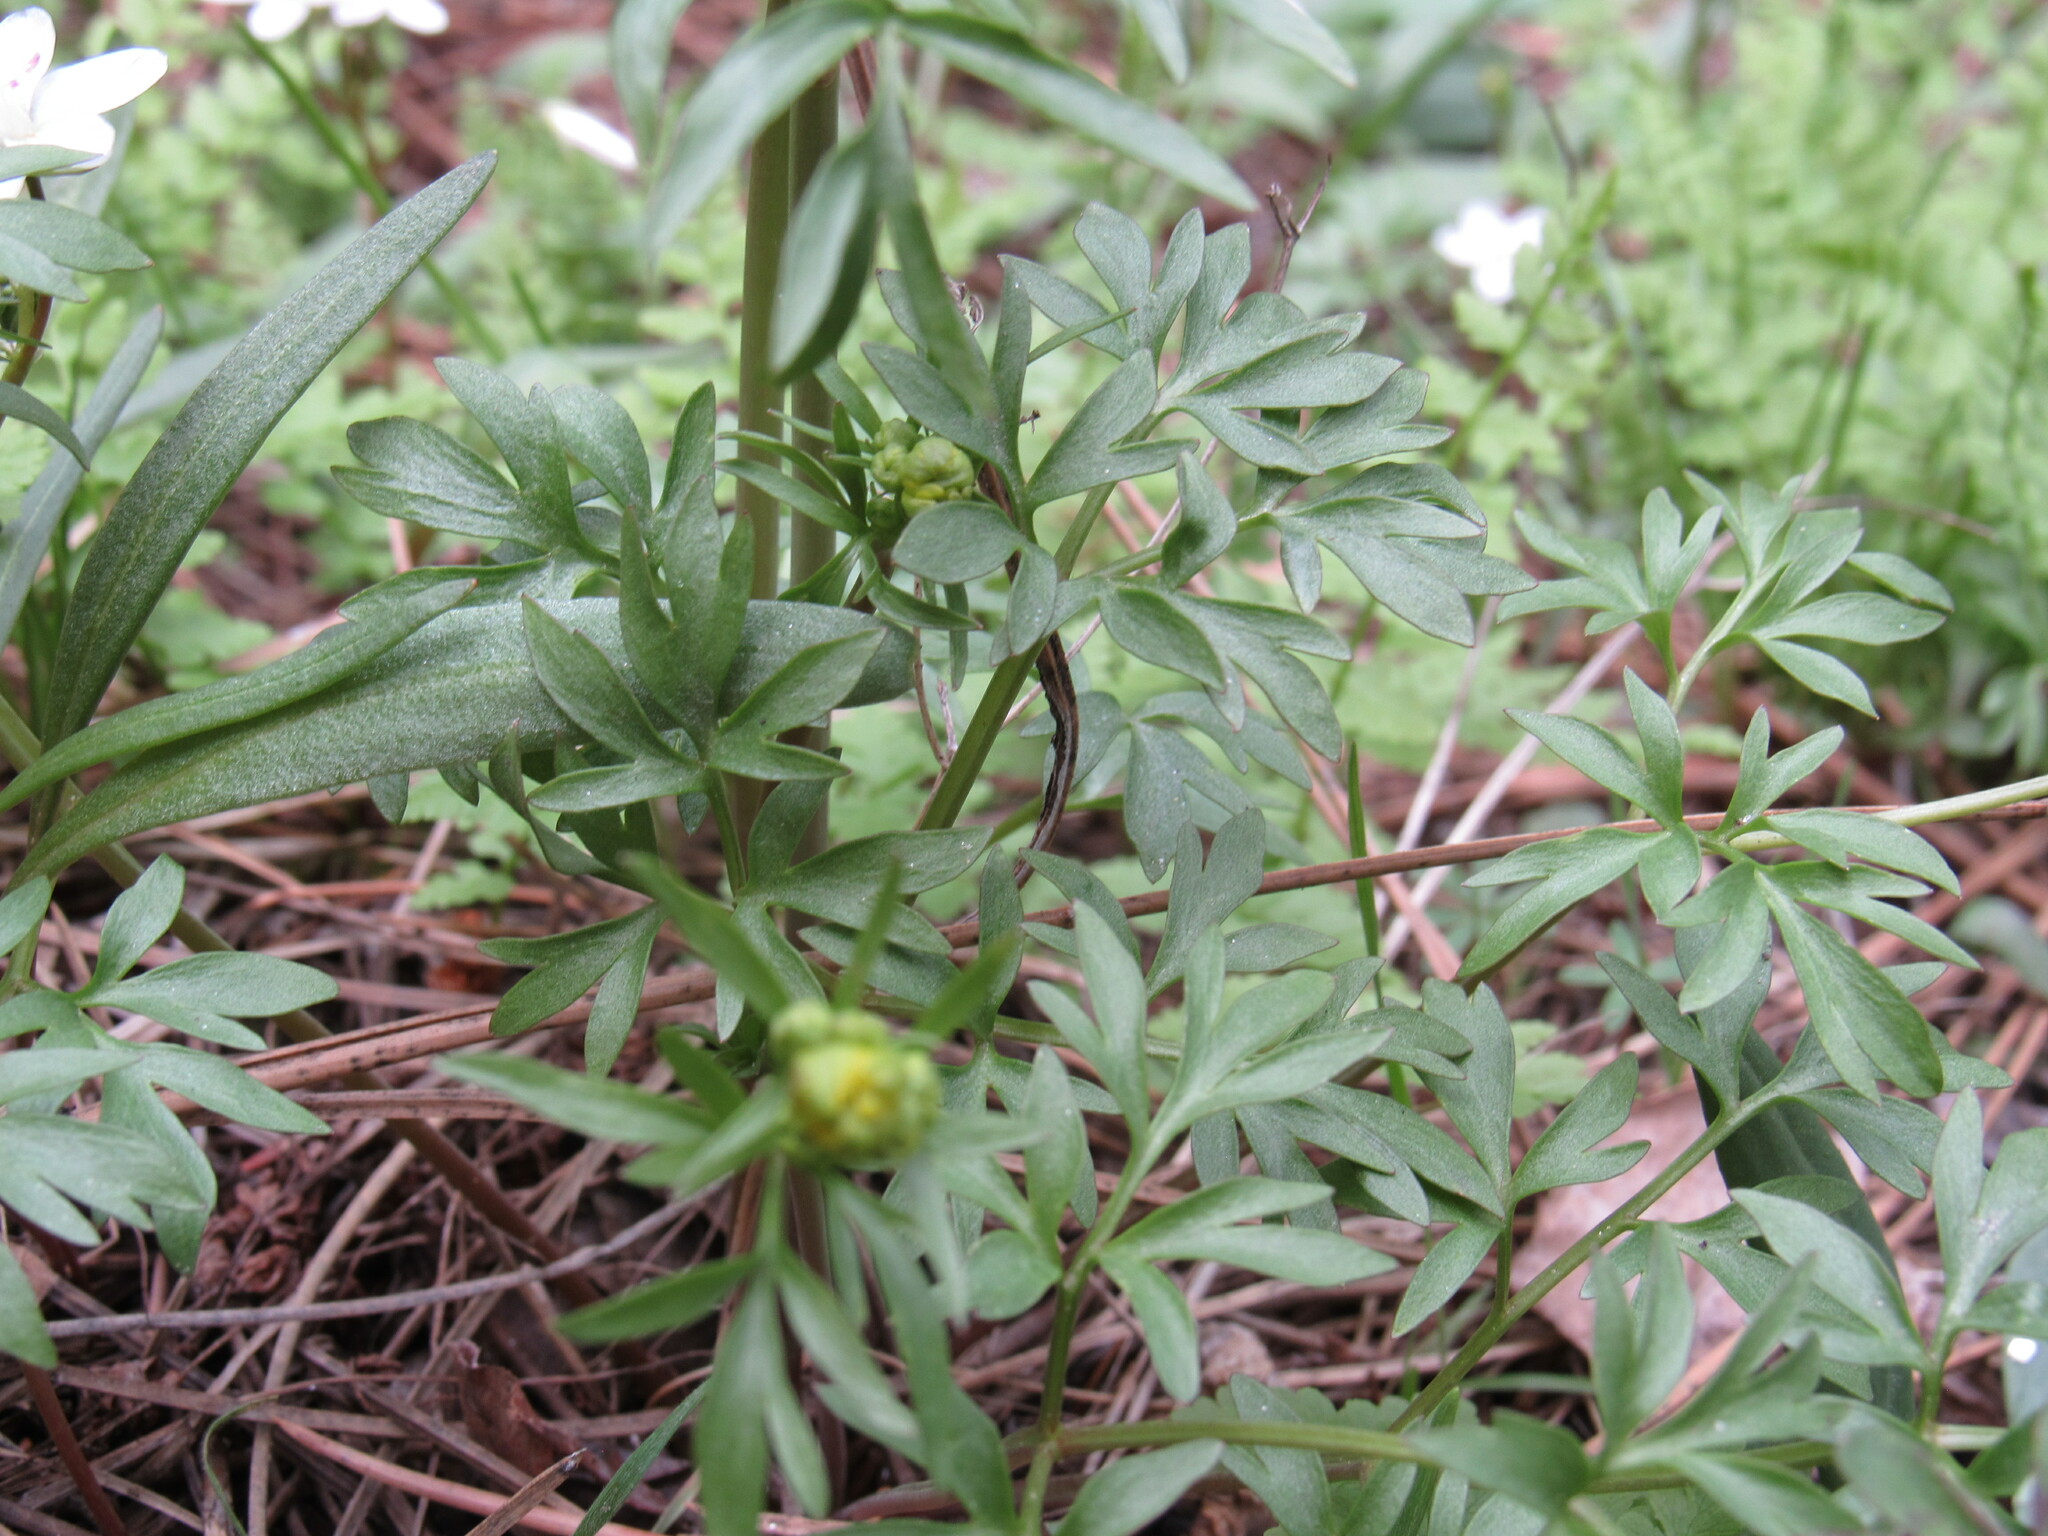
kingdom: Plantae
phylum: Tracheophyta
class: Magnoliopsida
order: Ranunculales
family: Ranunculaceae
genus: Cyrtorhyncha
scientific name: Cyrtorhyncha ranunculina
